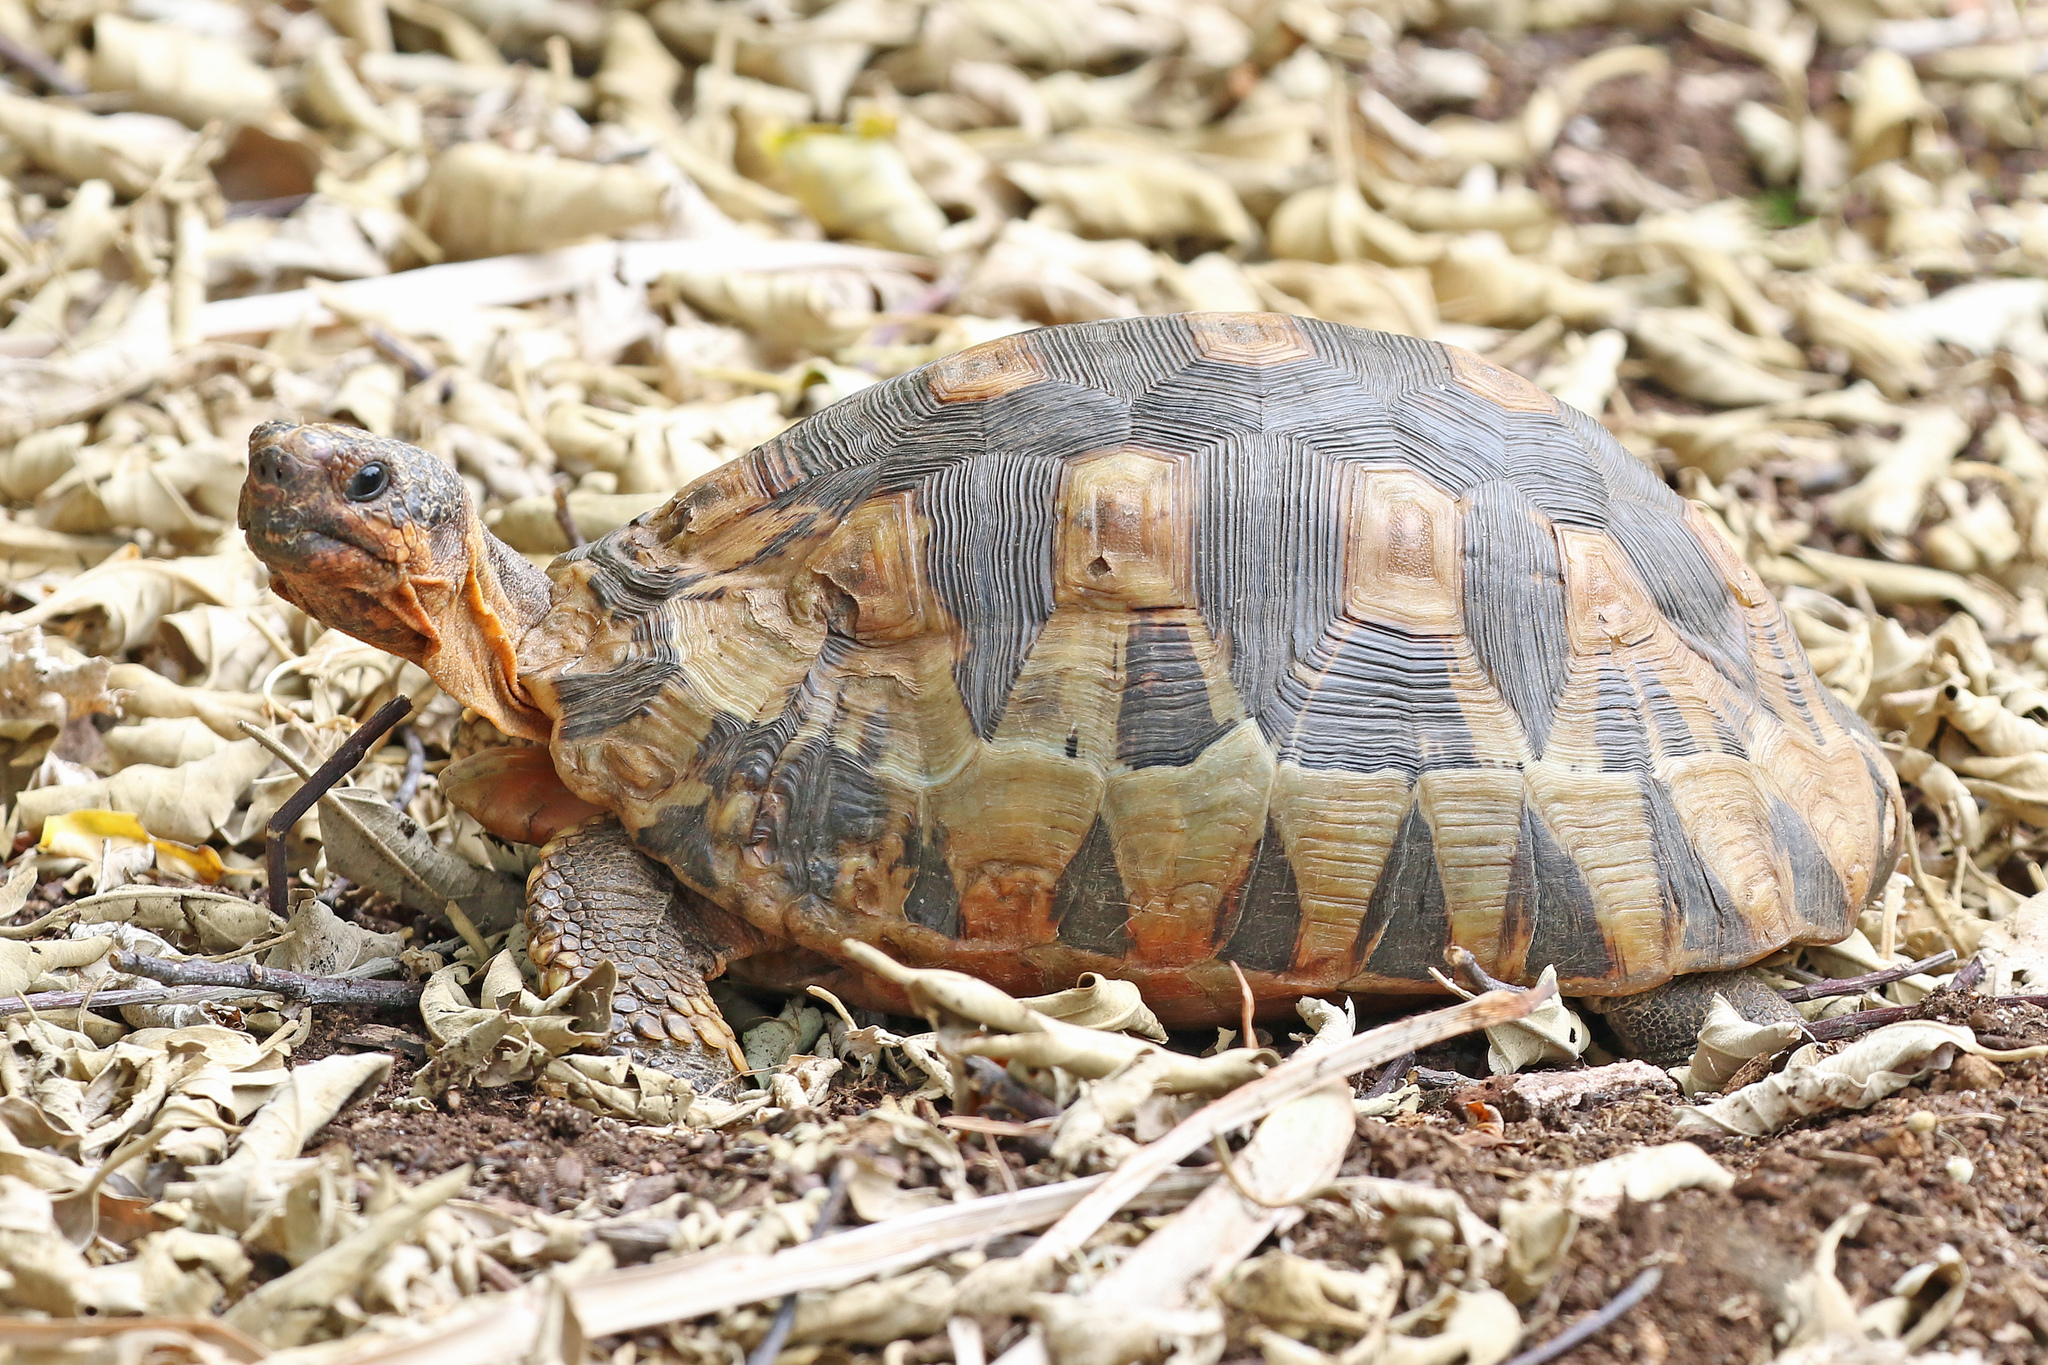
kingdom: Animalia
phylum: Chordata
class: Testudines
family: Testudinidae
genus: Chersina
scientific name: Chersina angulata
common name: South african bowsprit tortoise
